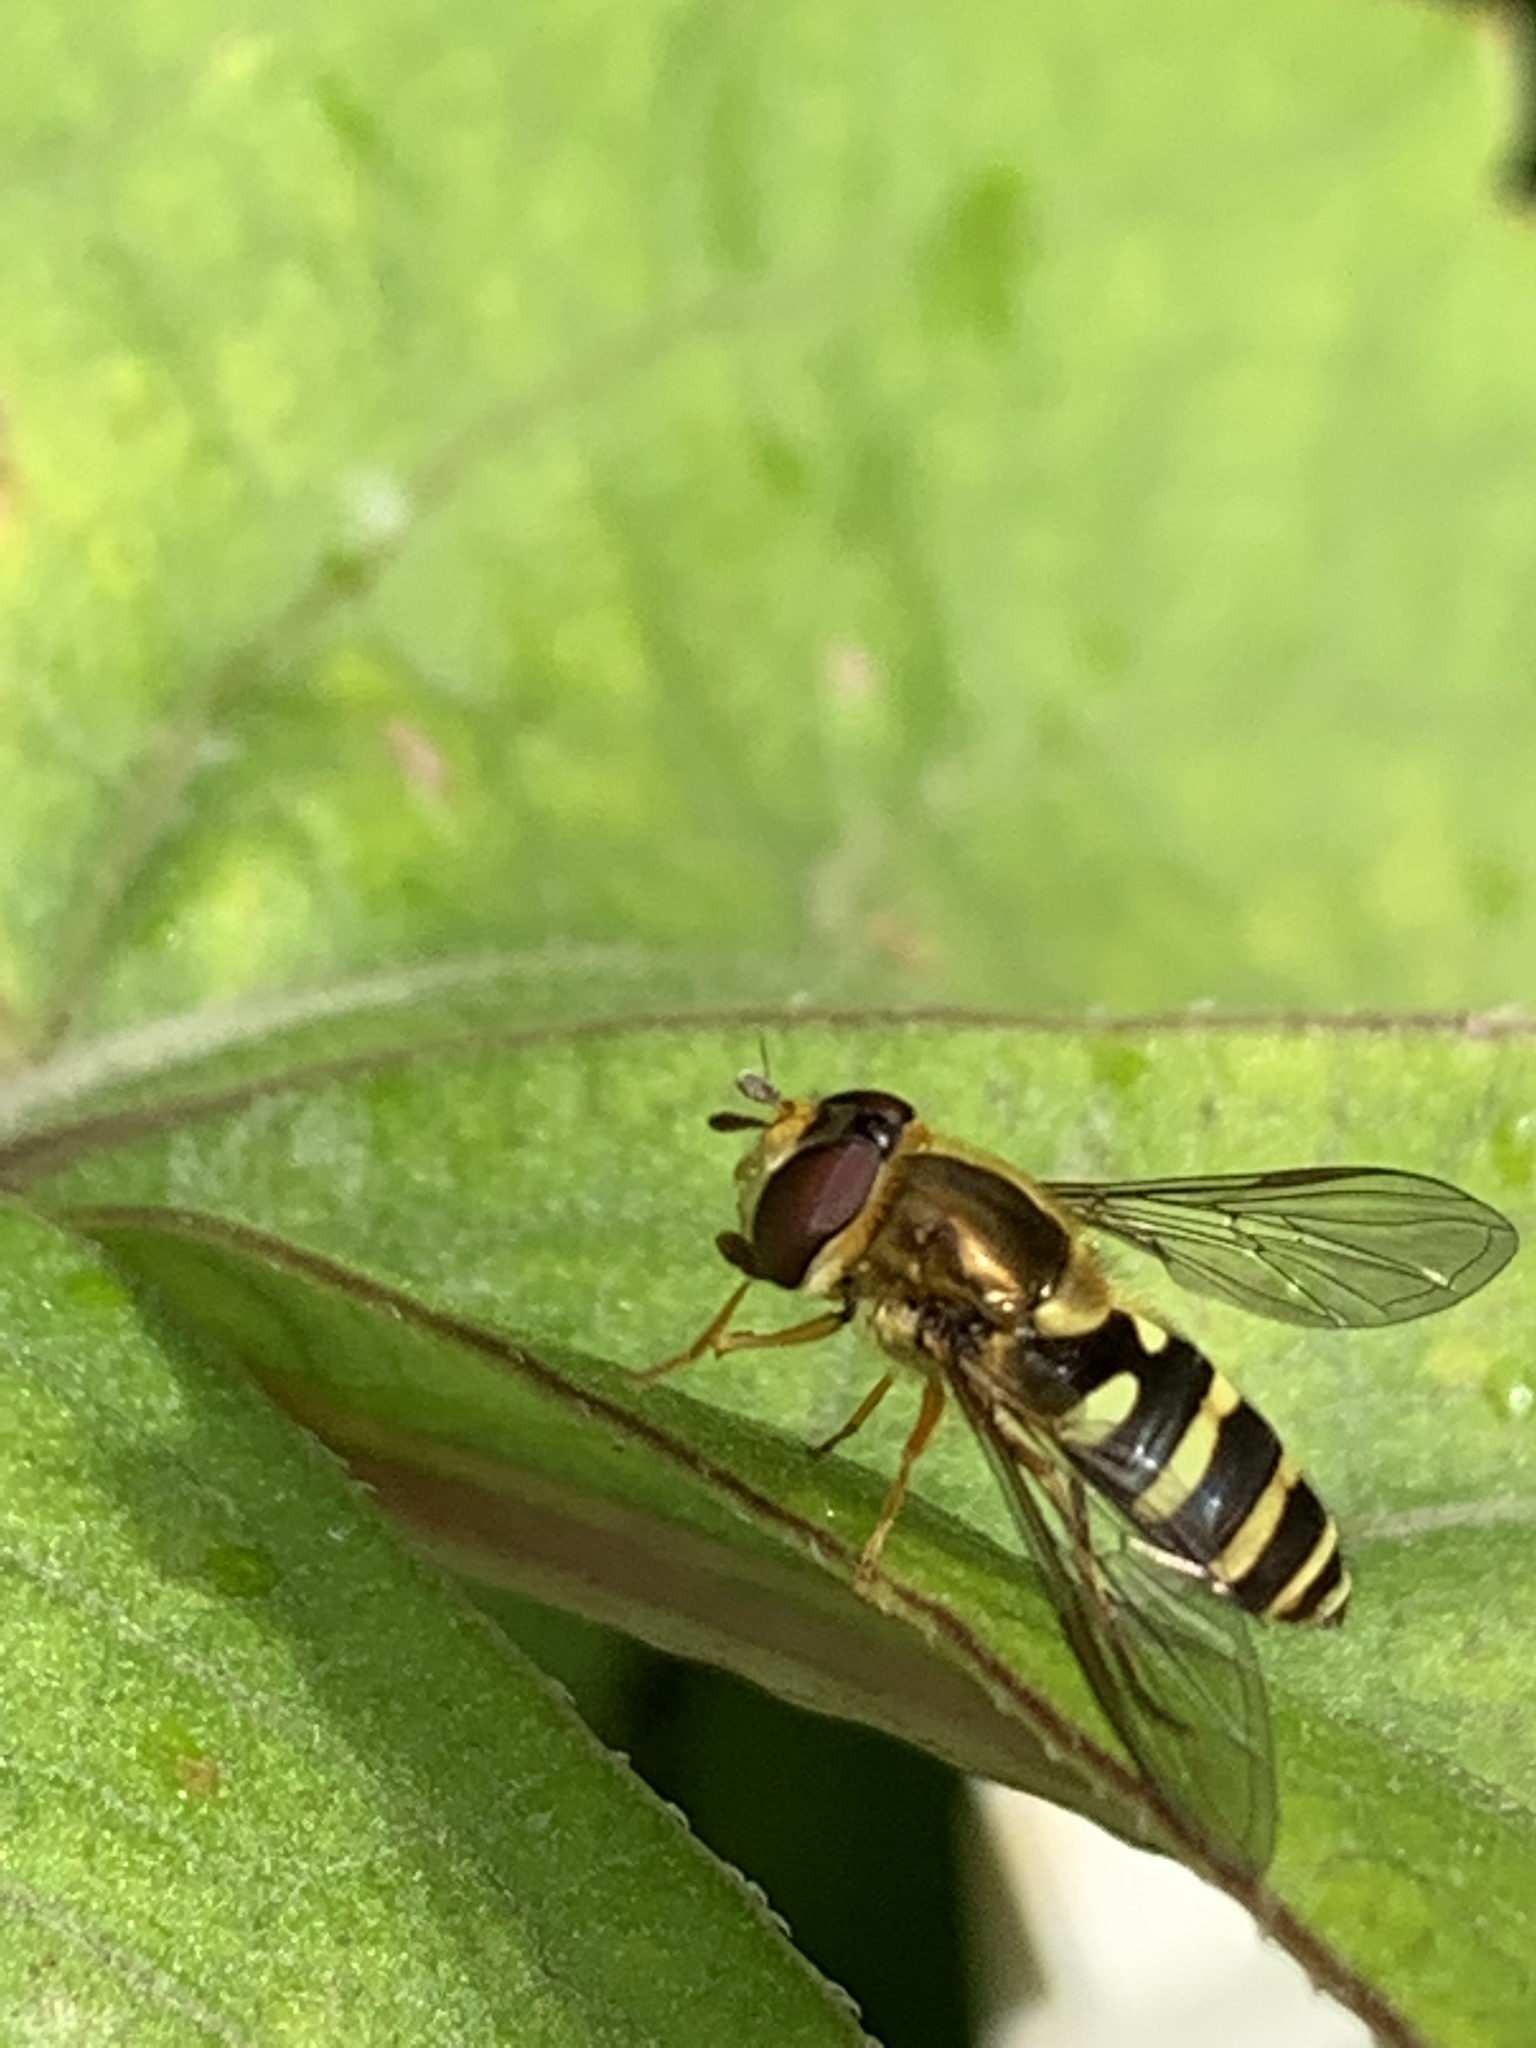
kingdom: Animalia
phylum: Arthropoda
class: Insecta
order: Diptera
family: Syrphidae
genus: Syrphus
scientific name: Syrphus opinator
